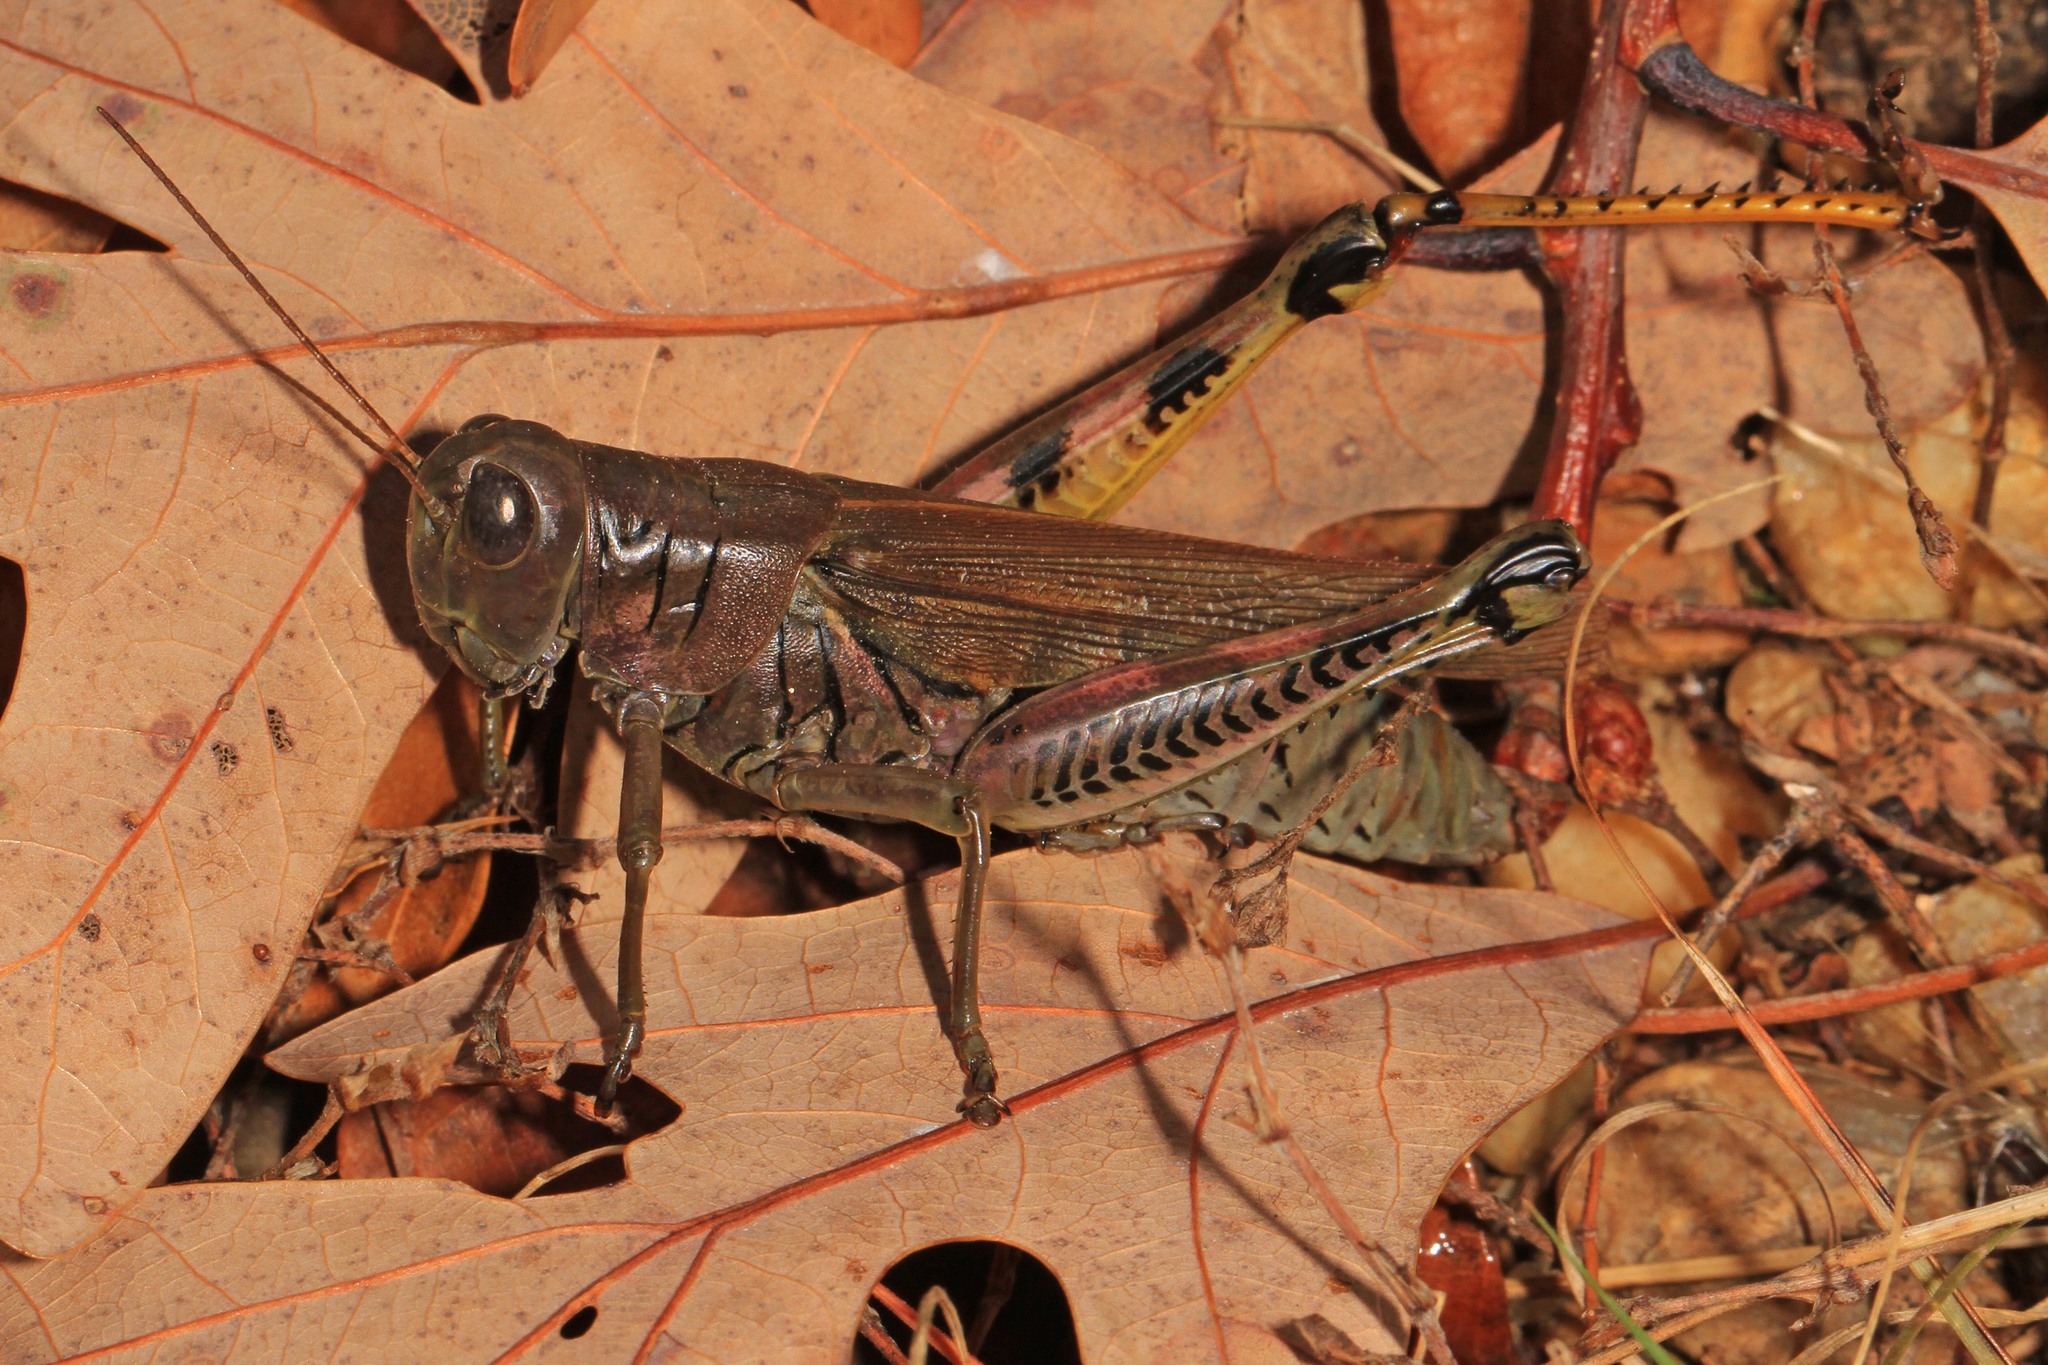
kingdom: Animalia
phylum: Arthropoda
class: Insecta
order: Orthoptera
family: Acrididae
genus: Melanoplus
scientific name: Melanoplus differentialis
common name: Differential grasshopper
